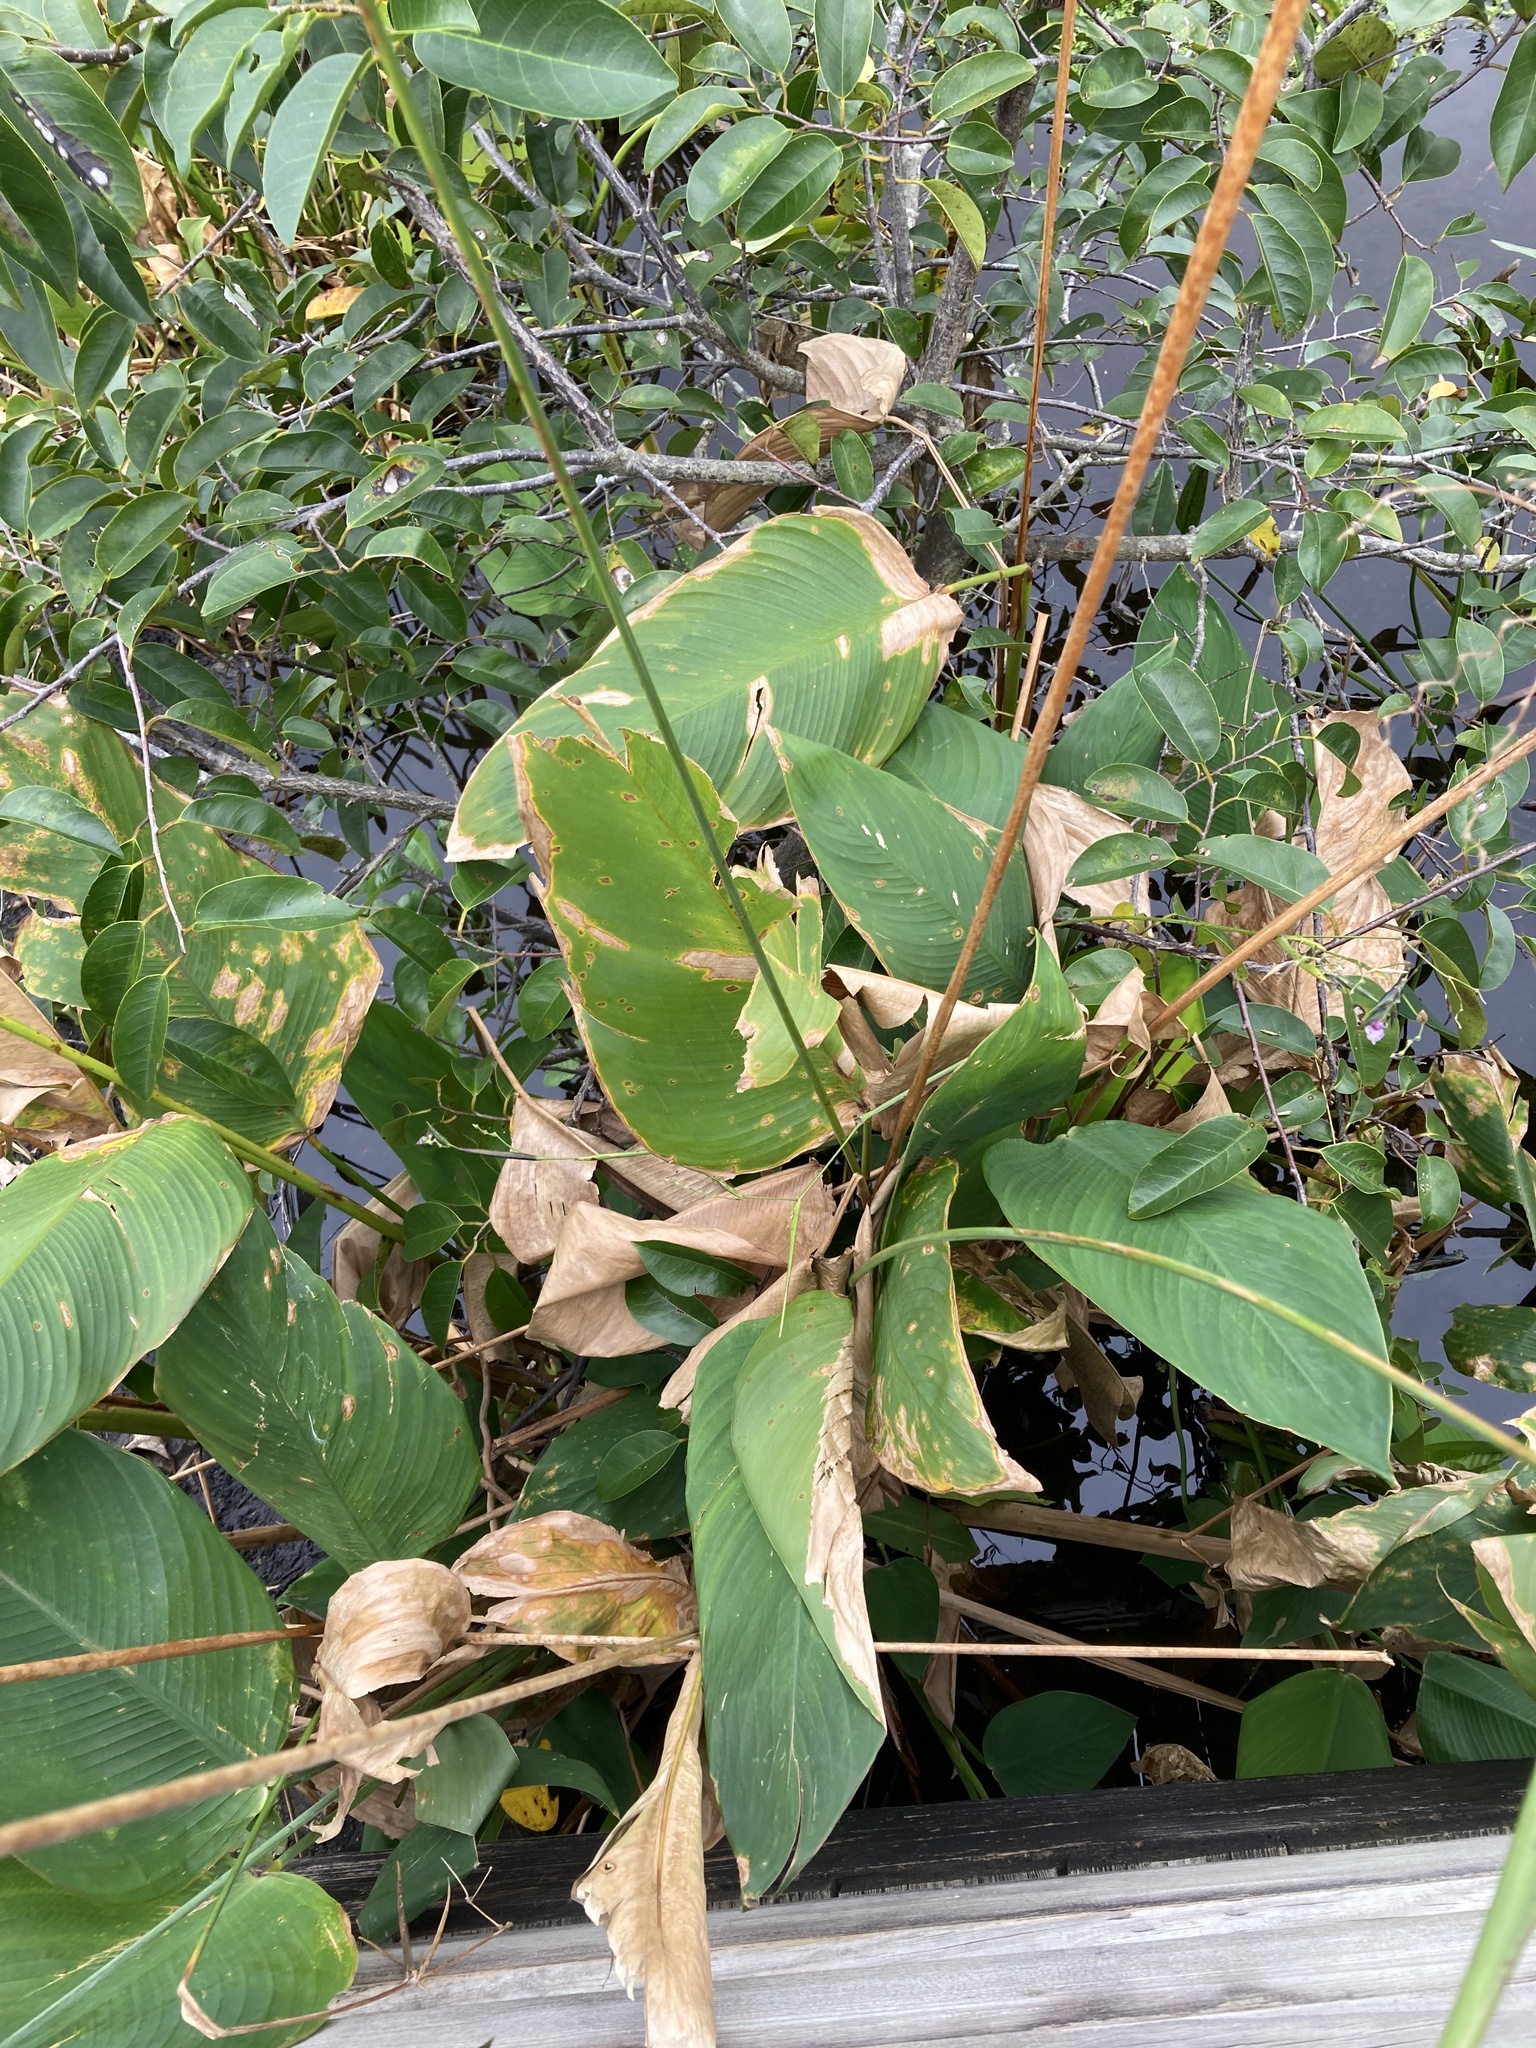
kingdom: Plantae
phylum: Tracheophyta
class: Liliopsida
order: Zingiberales
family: Marantaceae
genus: Thalia
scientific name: Thalia geniculata
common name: Arrowroot
